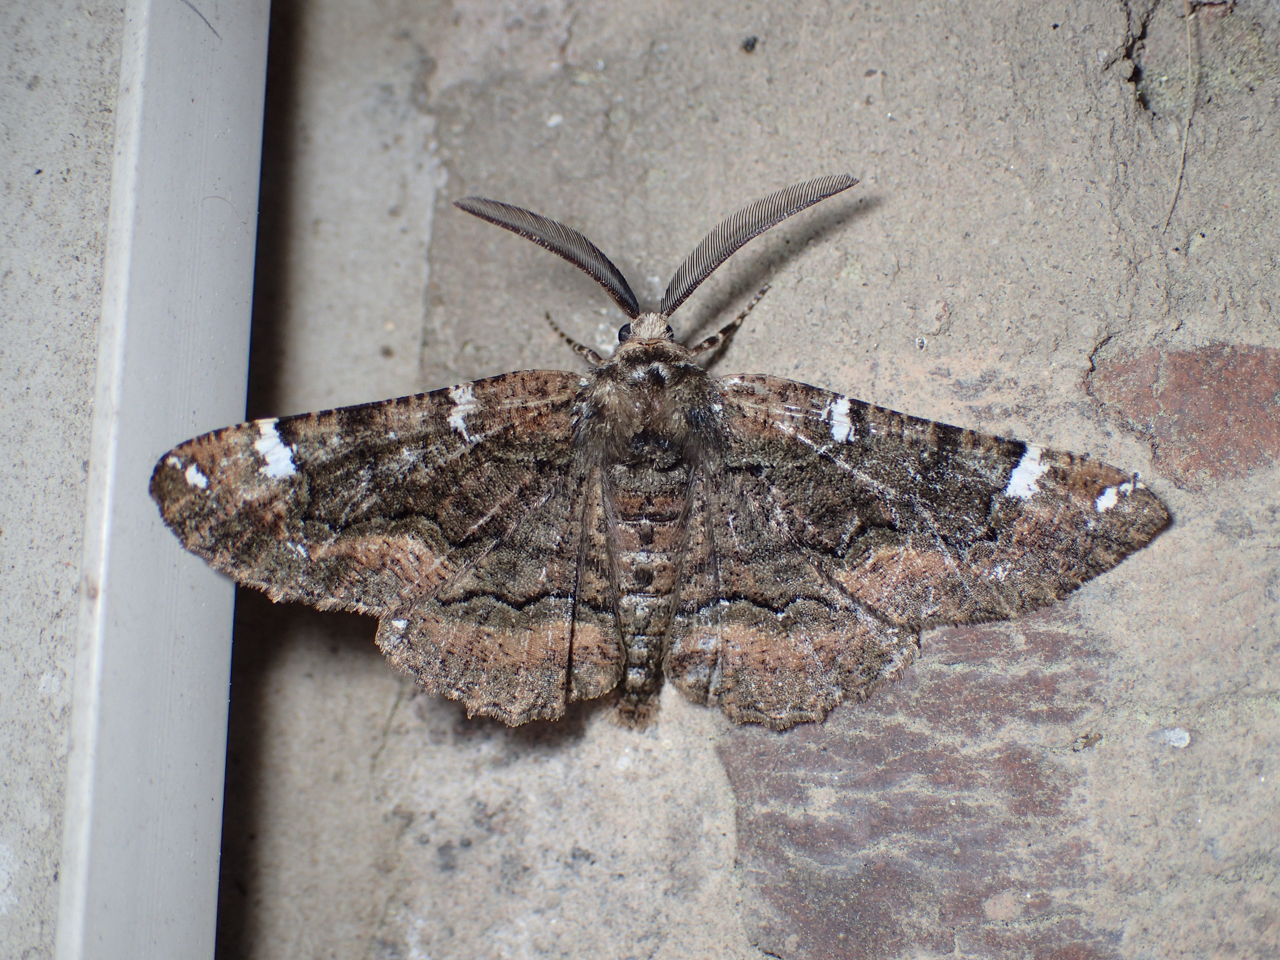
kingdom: Animalia
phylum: Arthropoda
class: Insecta
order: Lepidoptera
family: Geometridae
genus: Phaeoura
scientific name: Phaeoura quernaria
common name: Oak beauty
